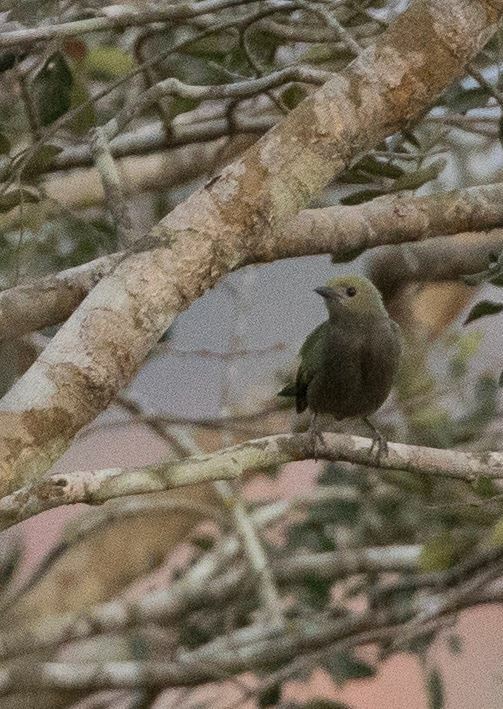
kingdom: Animalia
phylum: Chordata
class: Aves
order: Passeriformes
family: Thraupidae
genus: Thraupis
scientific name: Thraupis palmarum
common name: Palm tanager
